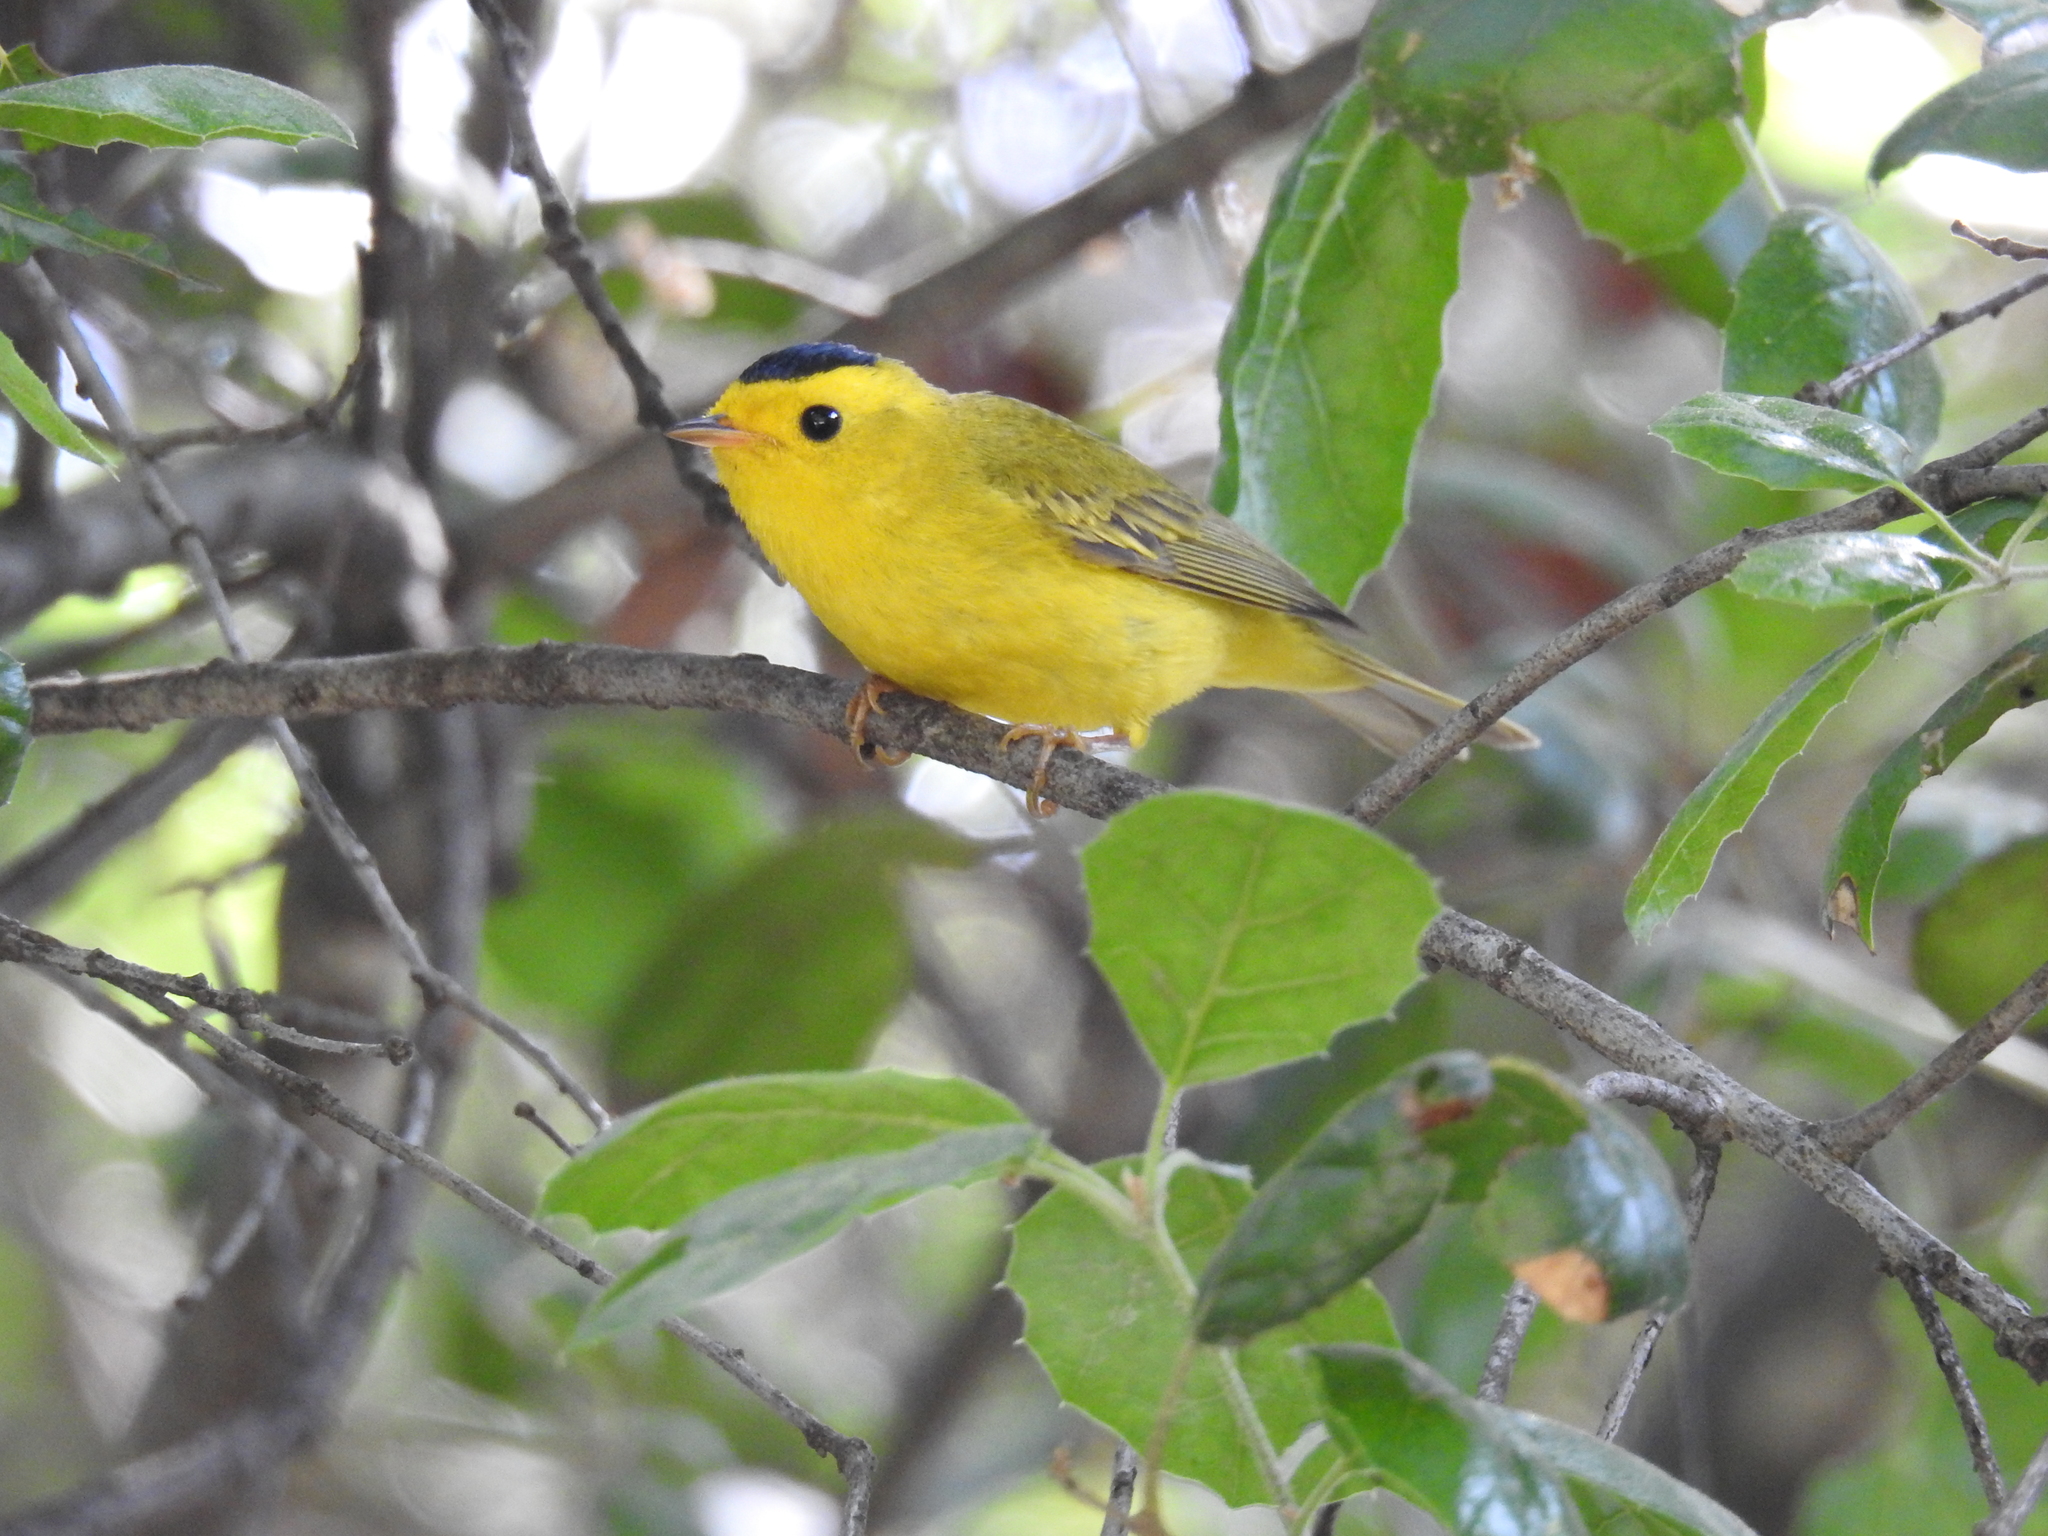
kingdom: Animalia
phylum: Chordata
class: Aves
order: Passeriformes
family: Parulidae
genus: Cardellina
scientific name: Cardellina pusilla
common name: Wilson's warbler
